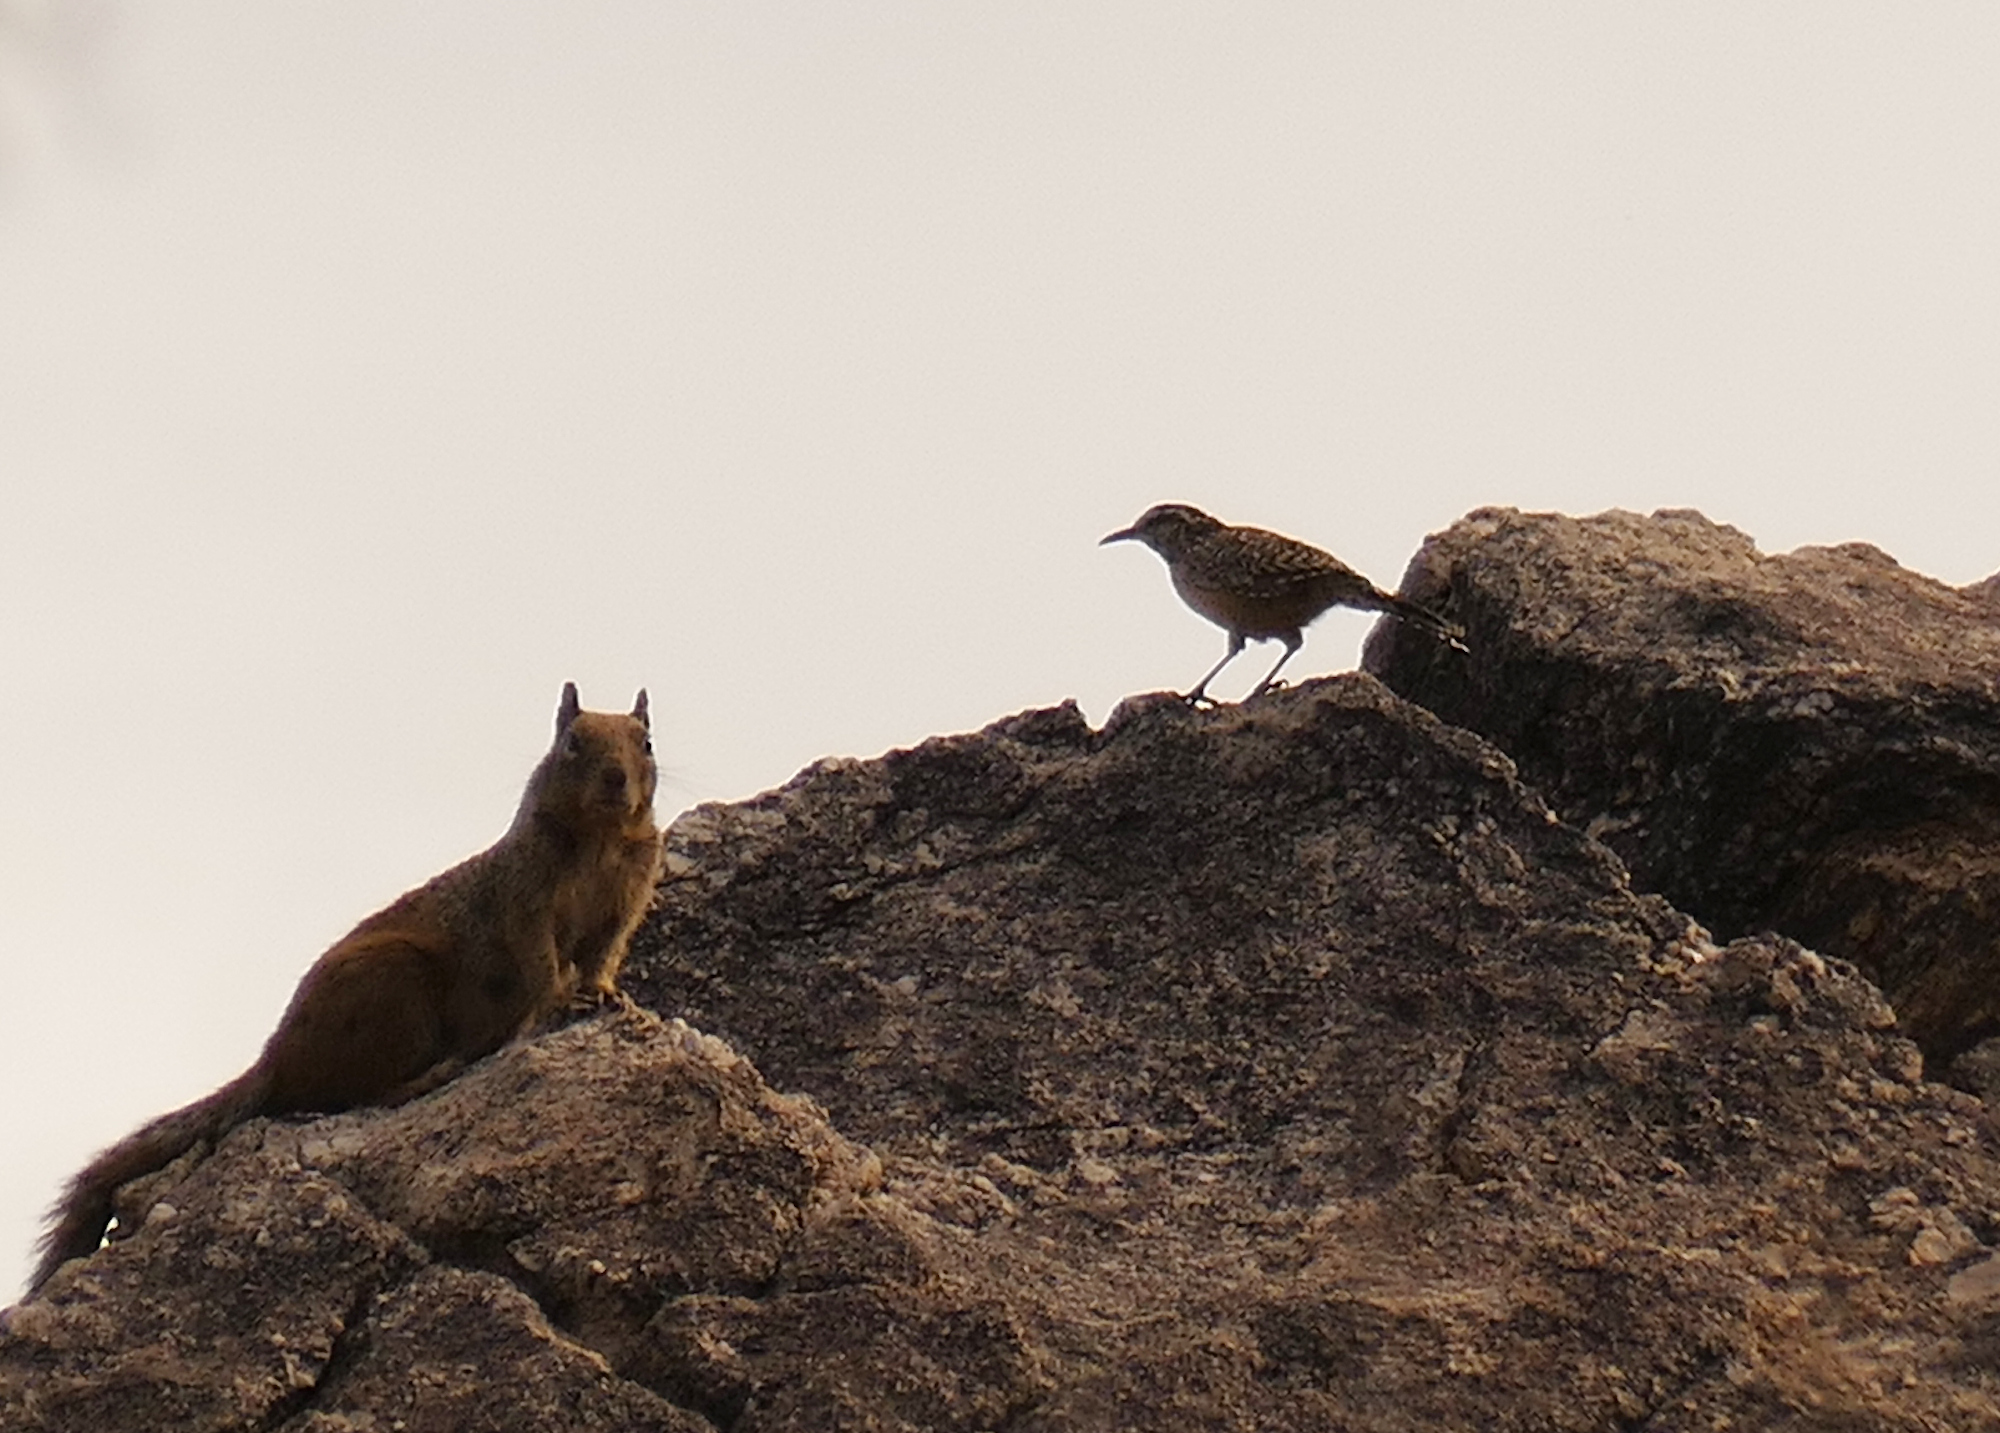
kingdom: Animalia
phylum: Chordata
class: Aves
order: Passeriformes
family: Troglodytidae
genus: Campylorhynchus
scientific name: Campylorhynchus brunneicapillus
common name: Cactus wren
